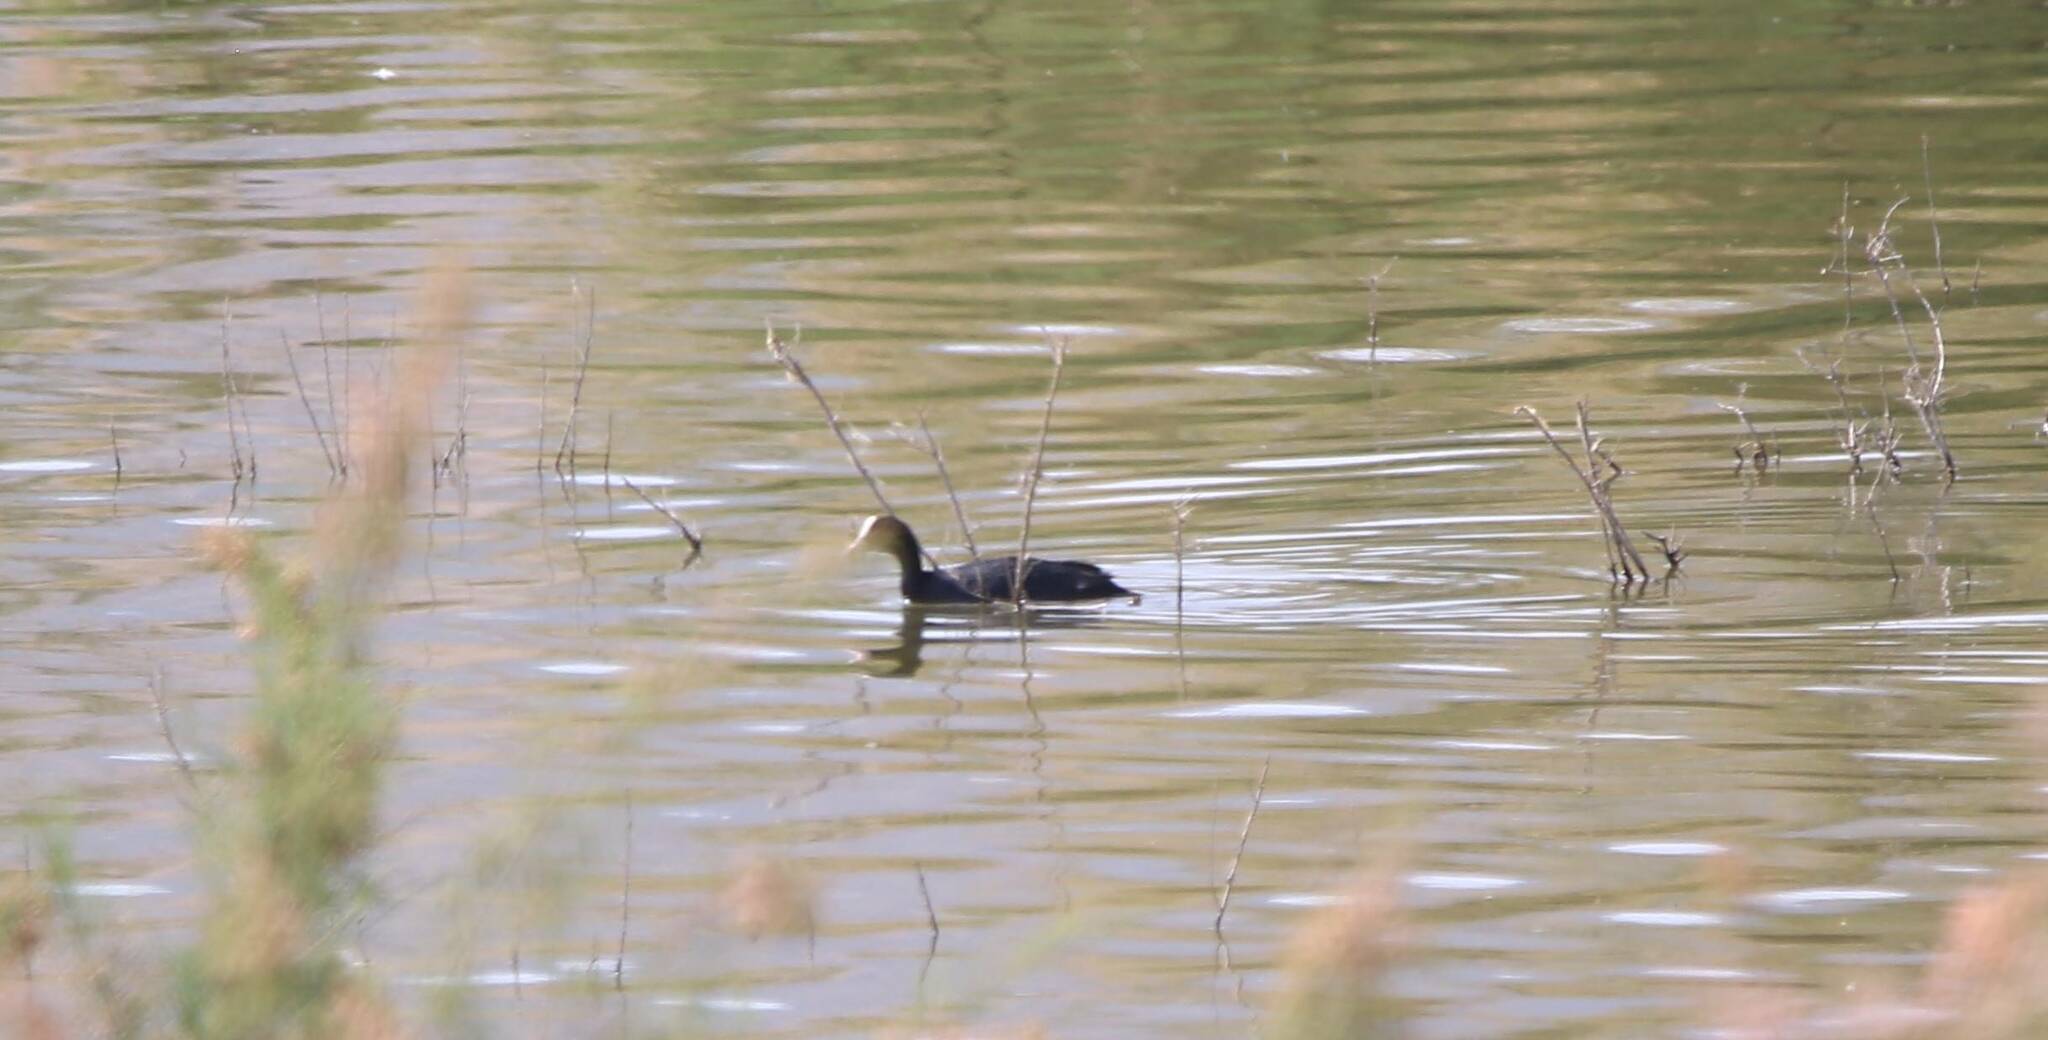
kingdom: Animalia
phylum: Chordata
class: Aves
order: Gruiformes
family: Rallidae
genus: Fulica
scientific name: Fulica atra
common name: Eurasian coot
